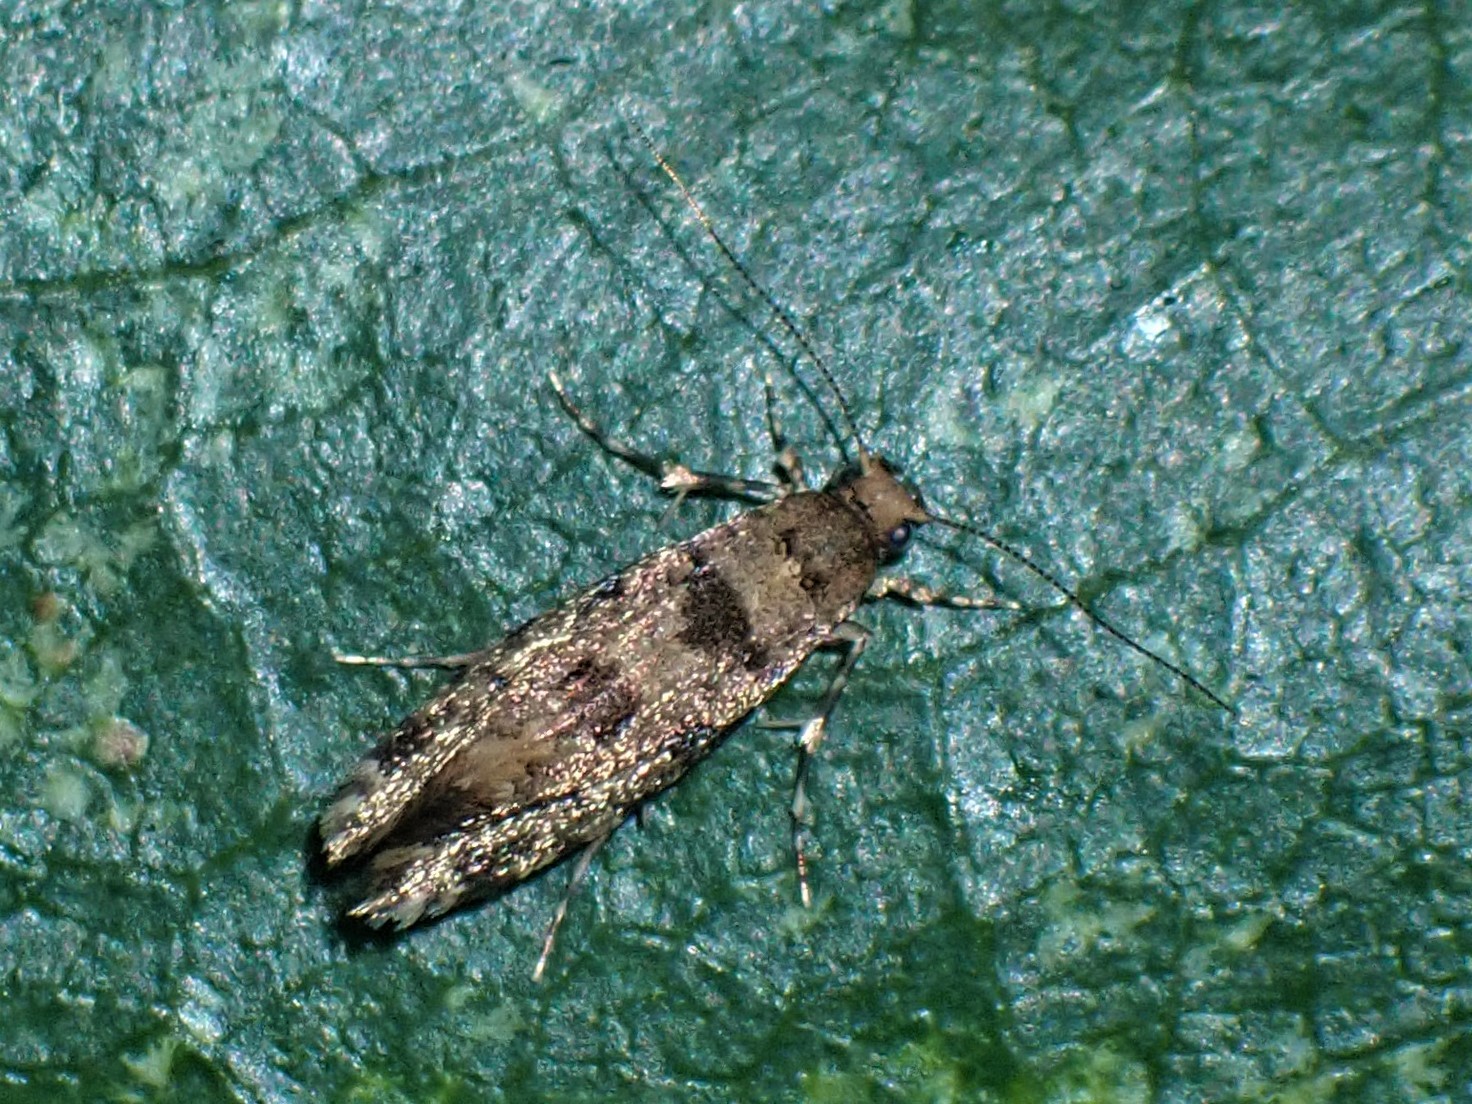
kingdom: Animalia
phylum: Arthropoda
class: Insecta
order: Lepidoptera
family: Tineidae
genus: Parochmastis
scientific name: Parochmastis hilderi
